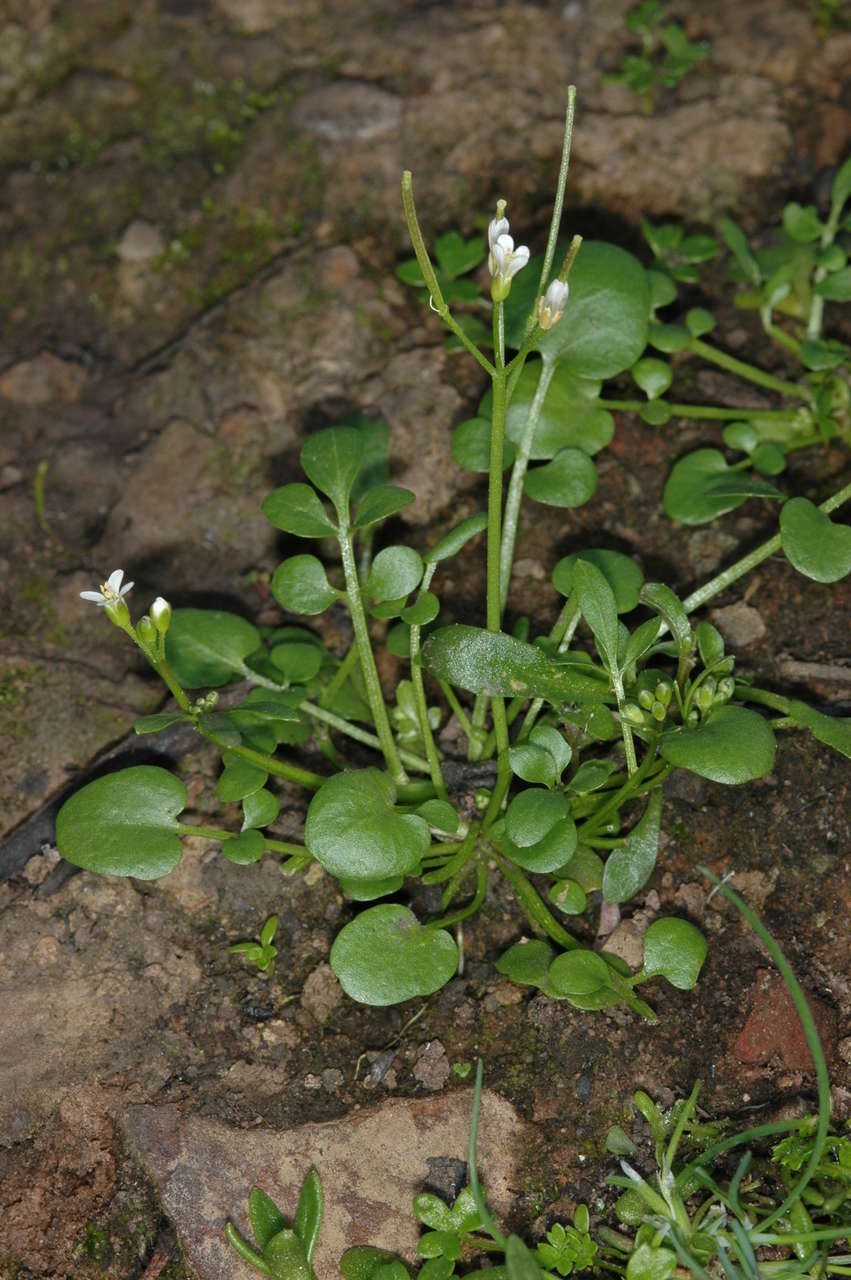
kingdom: Plantae
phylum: Tracheophyta
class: Magnoliopsida
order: Brassicales
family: Brassicaceae
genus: Cardamine
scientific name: Cardamine papillata
